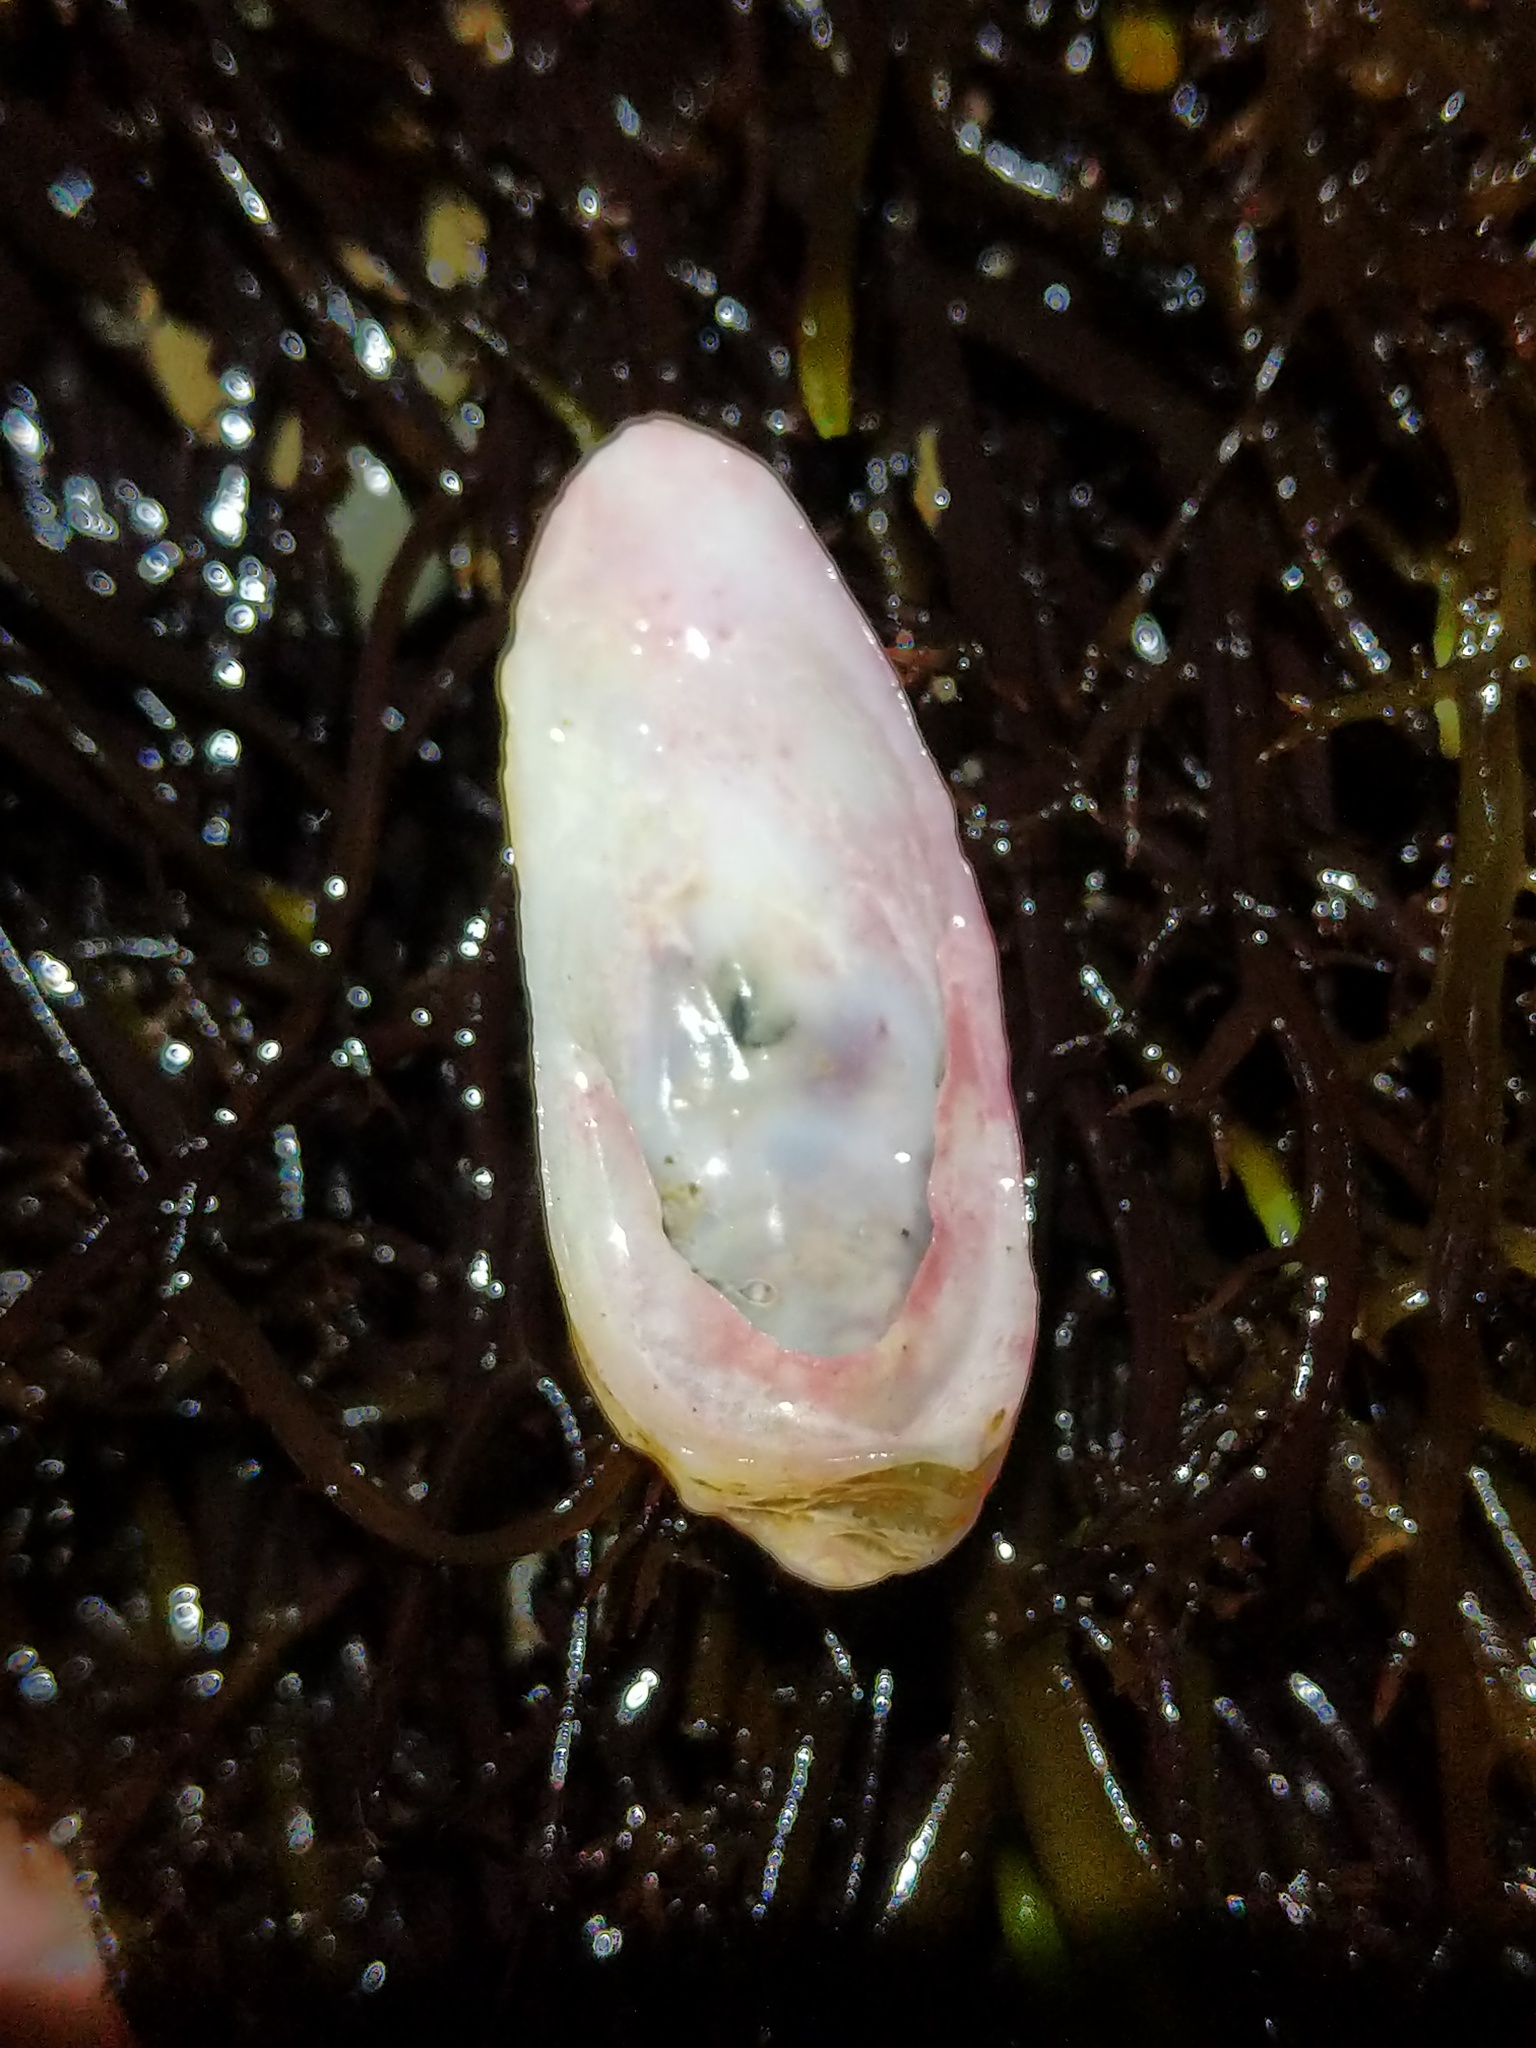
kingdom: Animalia
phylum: Mollusca
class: Gastropoda
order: Littorinimorpha
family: Calyptraeidae
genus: Crepidula
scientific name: Crepidula perforans
